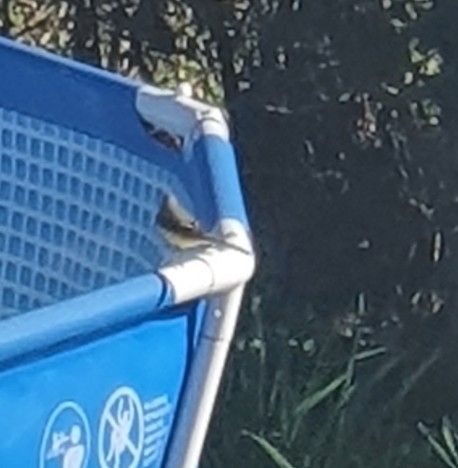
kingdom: Animalia
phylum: Chordata
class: Aves
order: Passeriformes
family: Motacillidae
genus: Motacilla
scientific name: Motacilla cinerea
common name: Grey wagtail
